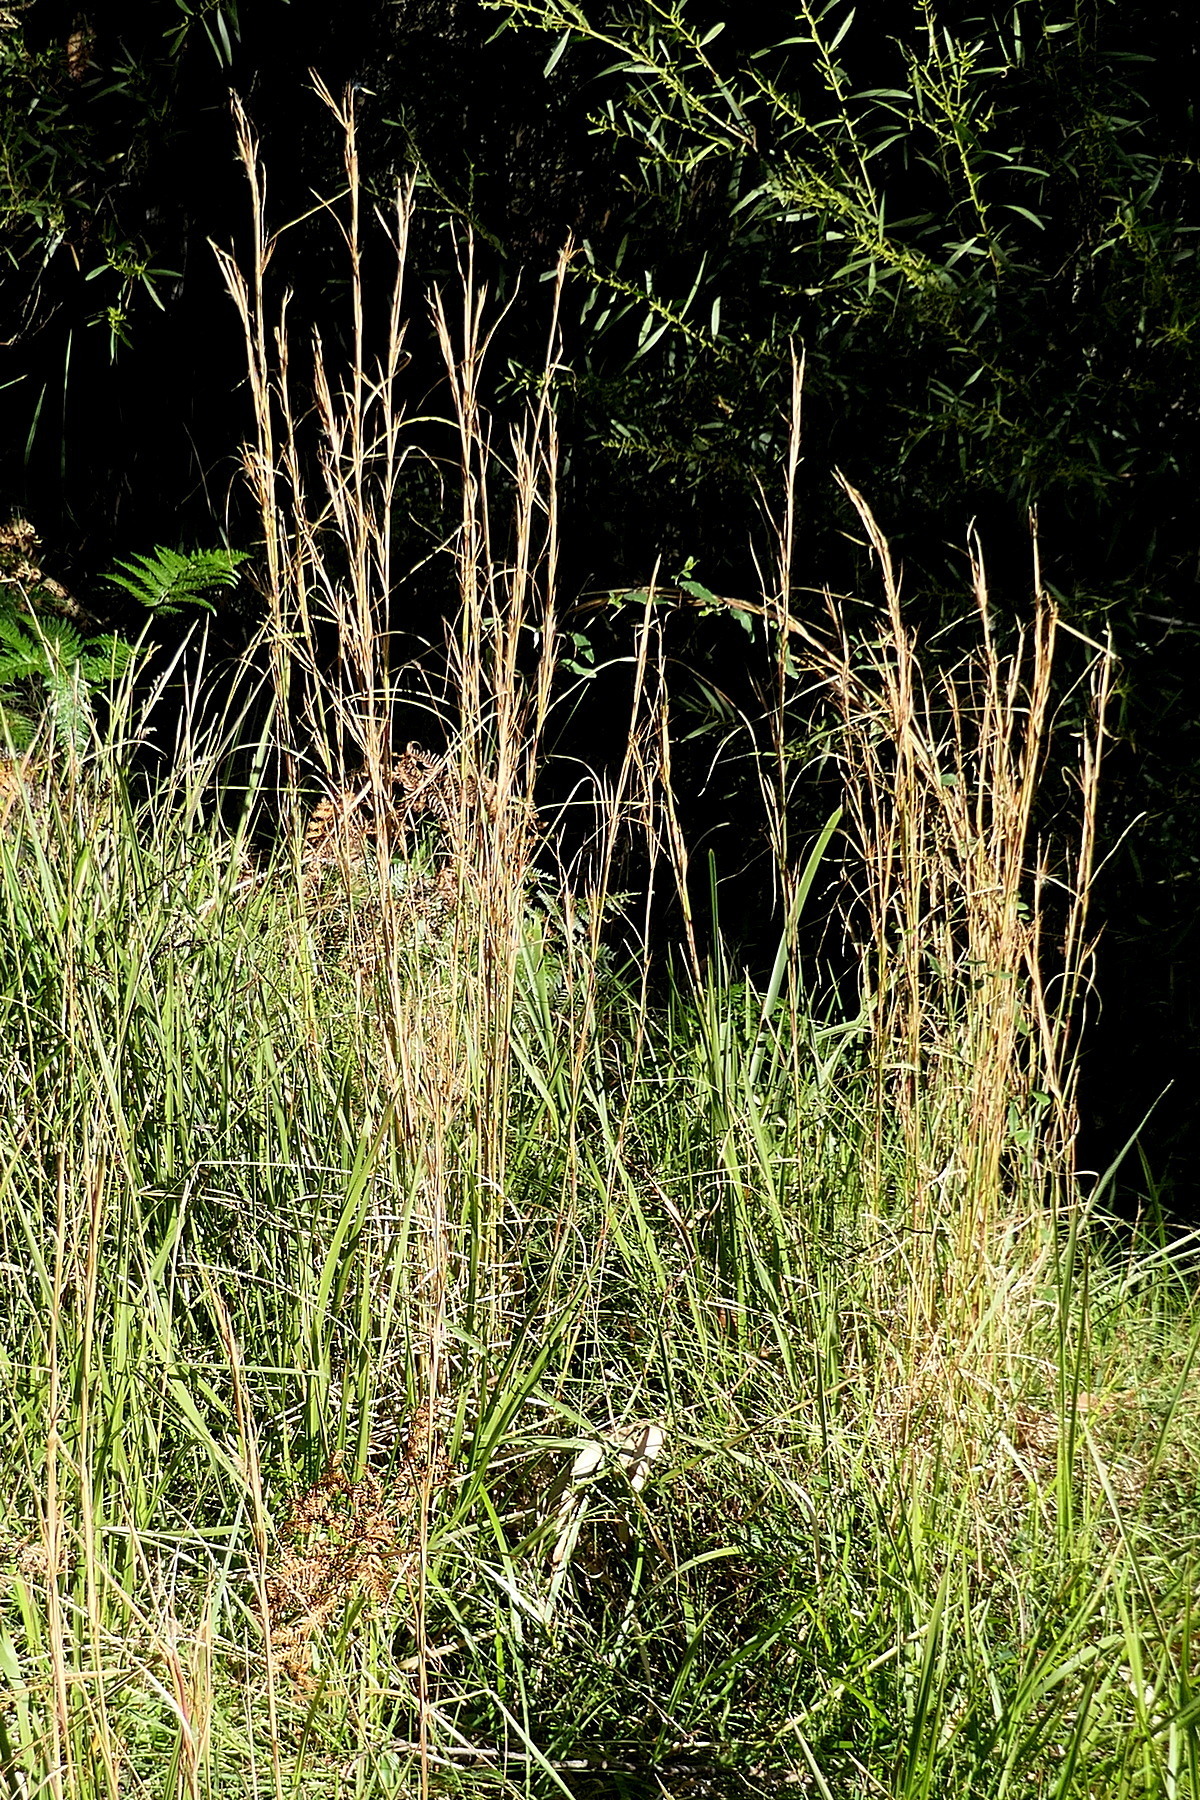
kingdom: Plantae
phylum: Tracheophyta
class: Liliopsida
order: Poales
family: Poaceae
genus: Andropogon
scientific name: Andropogon virginicus
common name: Broomsedge bluestem
